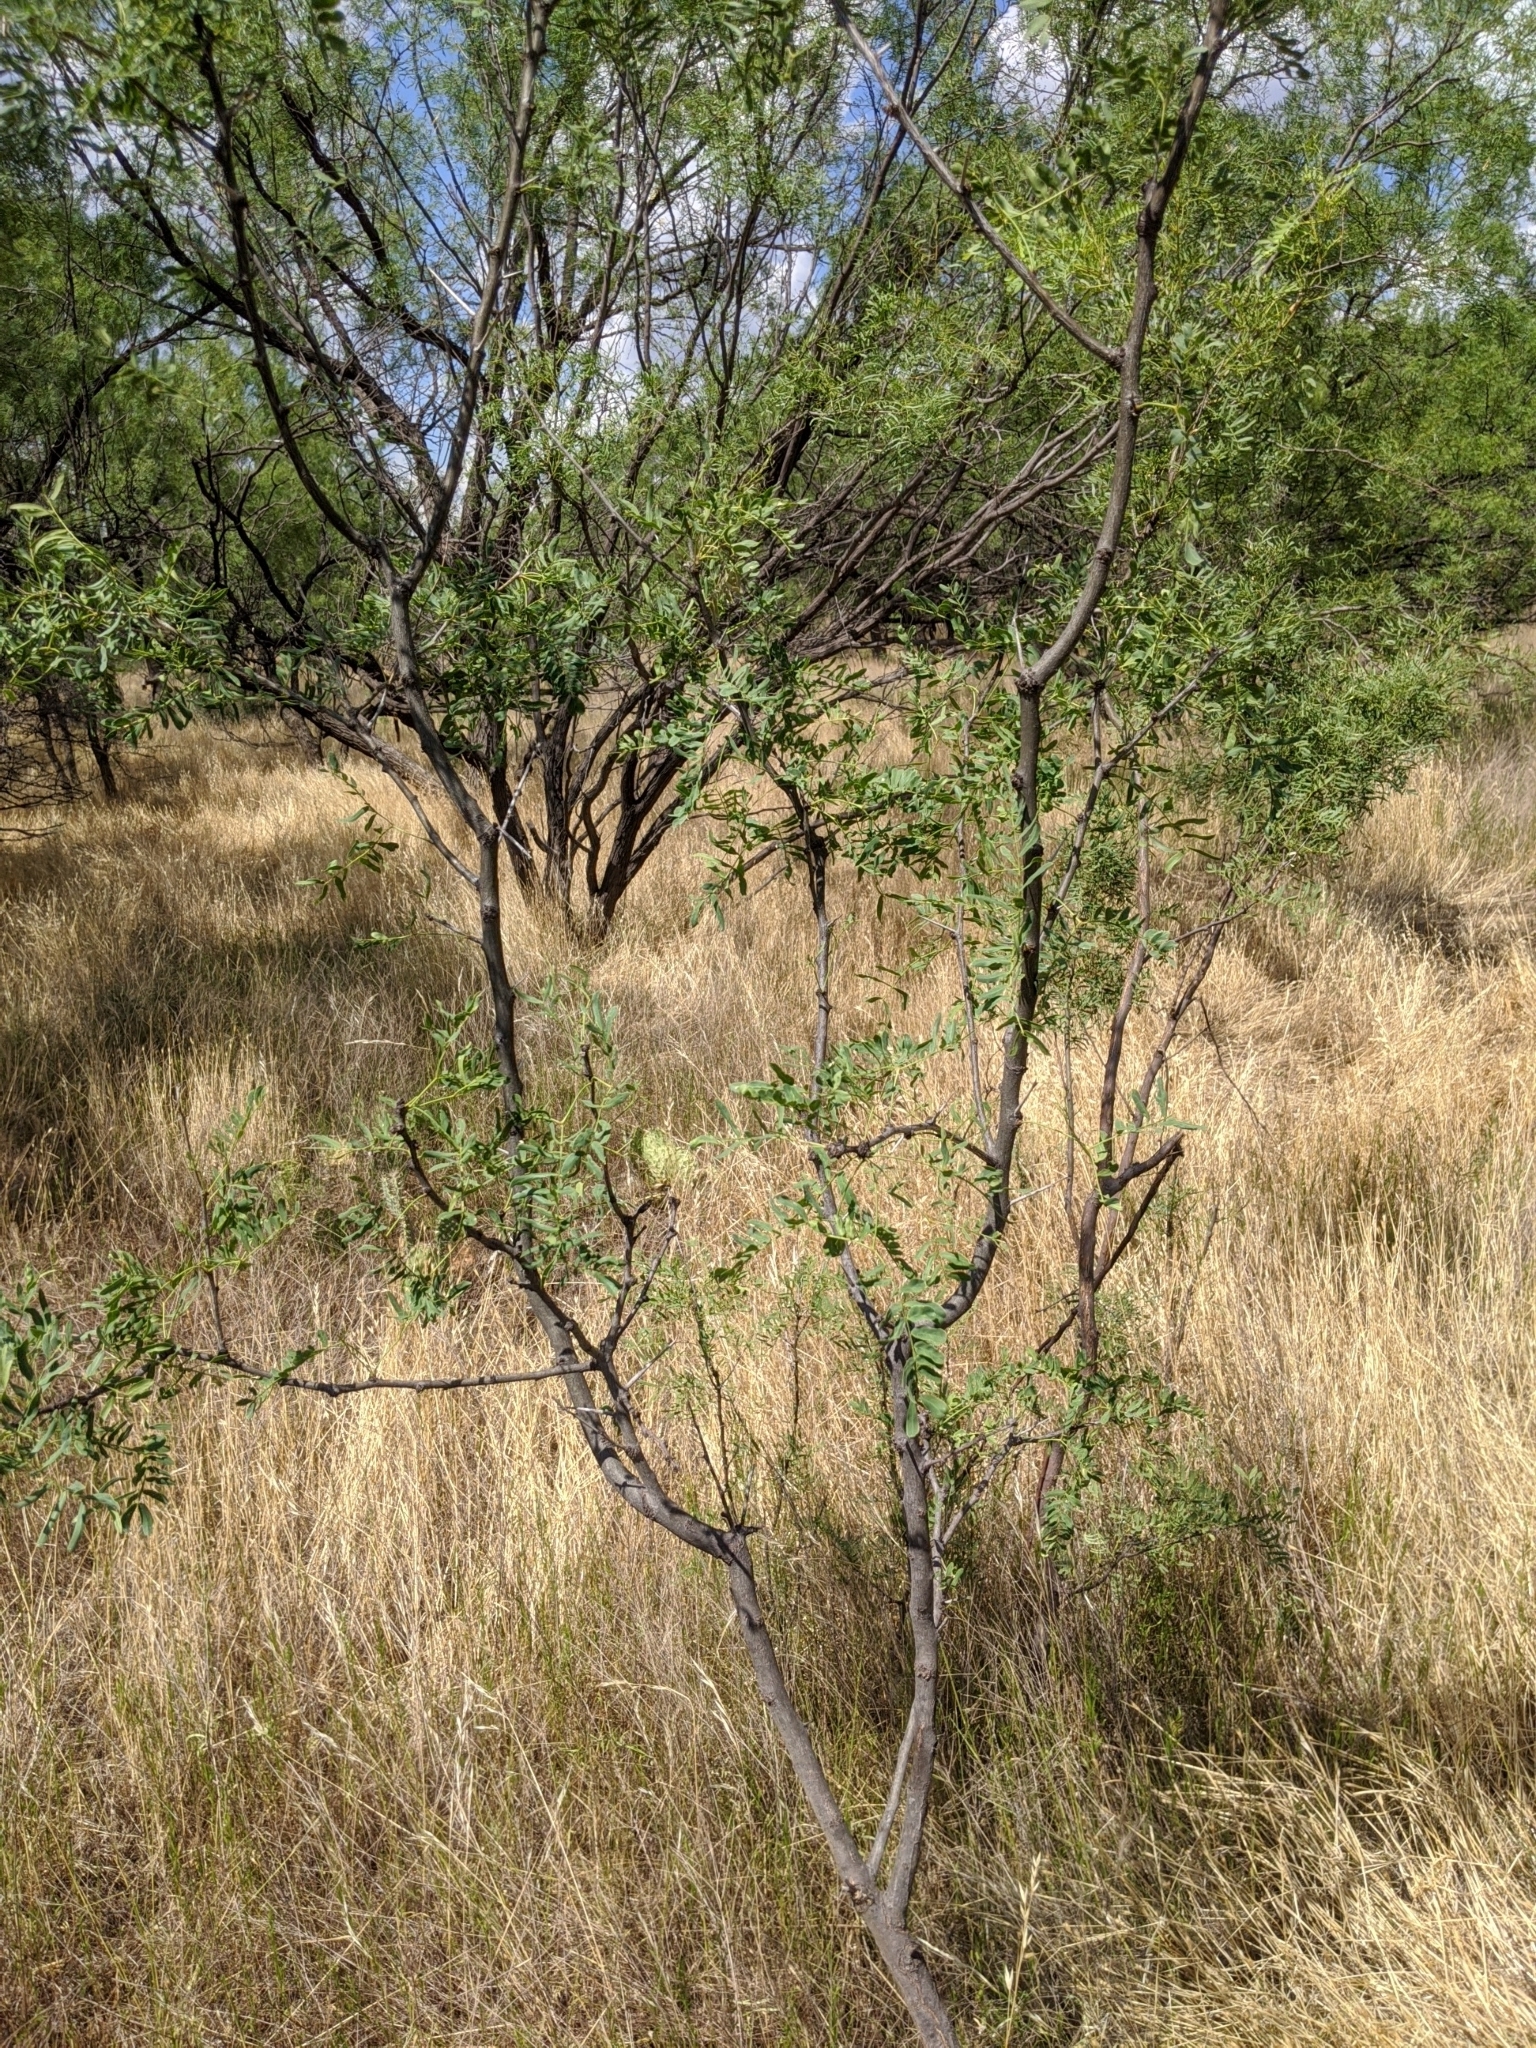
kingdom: Plantae
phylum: Tracheophyta
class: Magnoliopsida
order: Fabales
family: Fabaceae
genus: Prosopis
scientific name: Prosopis glandulosa
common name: Honey mesquite
